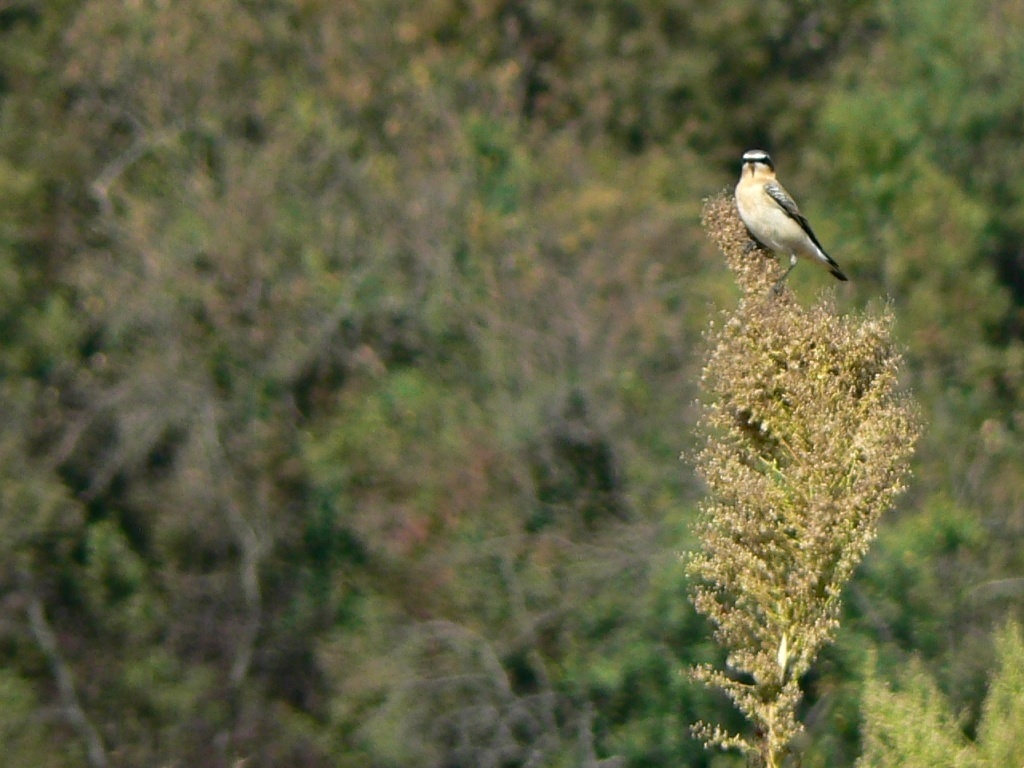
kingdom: Animalia
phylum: Chordata
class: Aves
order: Passeriformes
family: Muscicapidae
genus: Oenanthe
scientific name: Oenanthe oenanthe
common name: Northern wheatear
